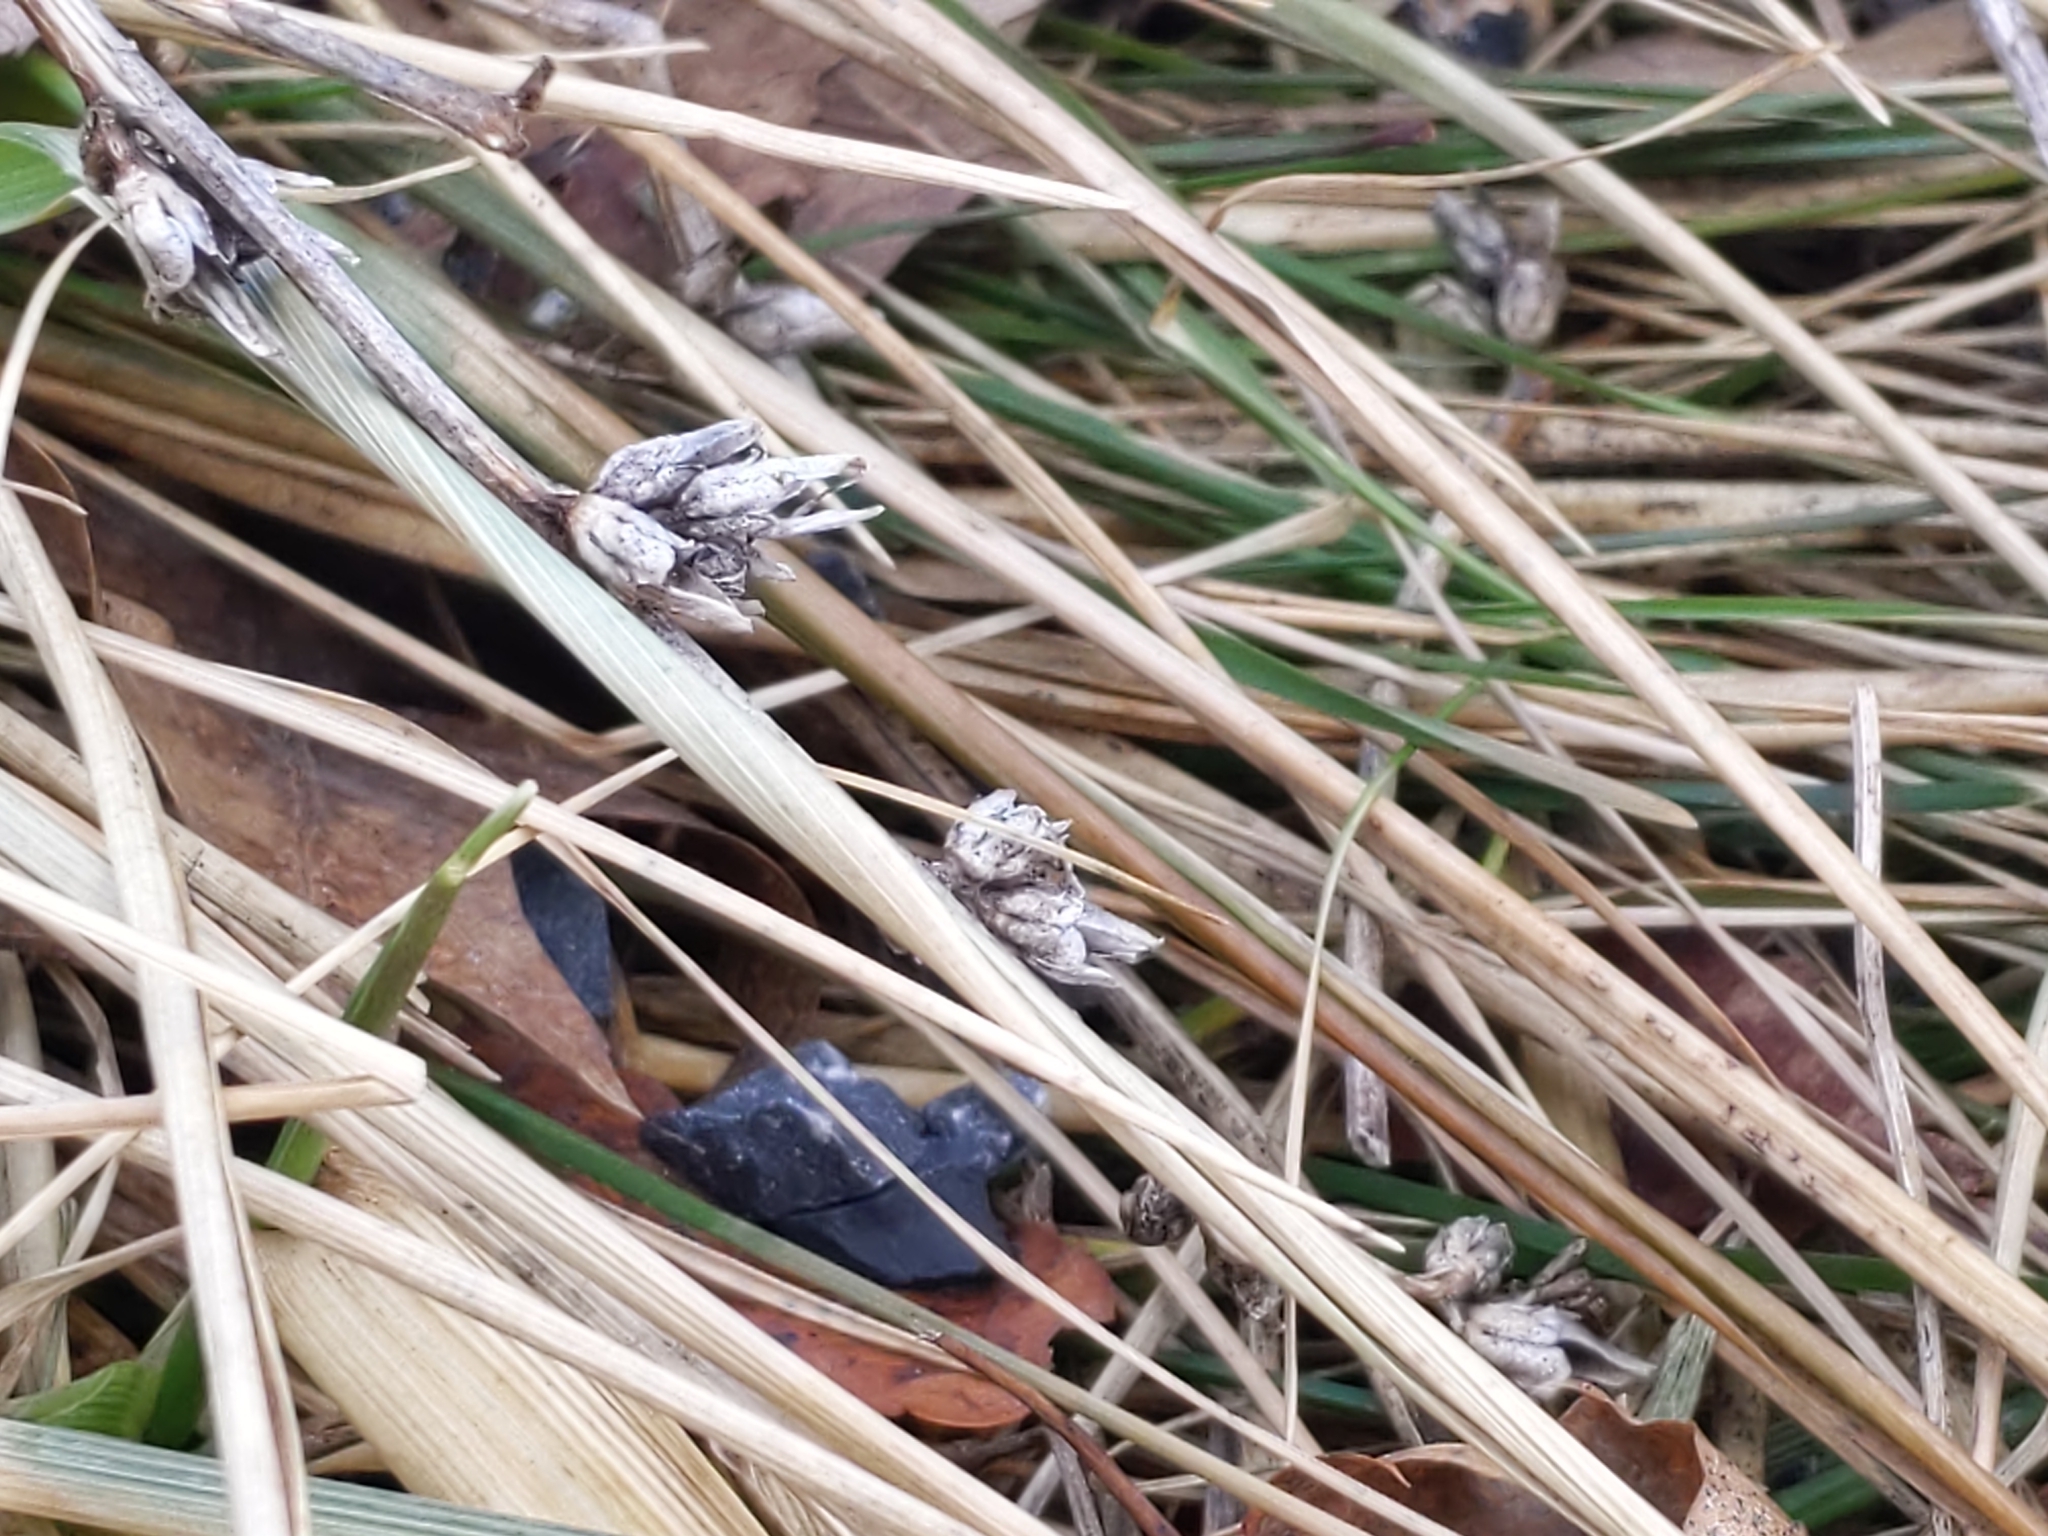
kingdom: Plantae
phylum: Tracheophyta
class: Magnoliopsida
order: Asterales
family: Asteraceae
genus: Cichorium
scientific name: Cichorium intybus
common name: Chicory
